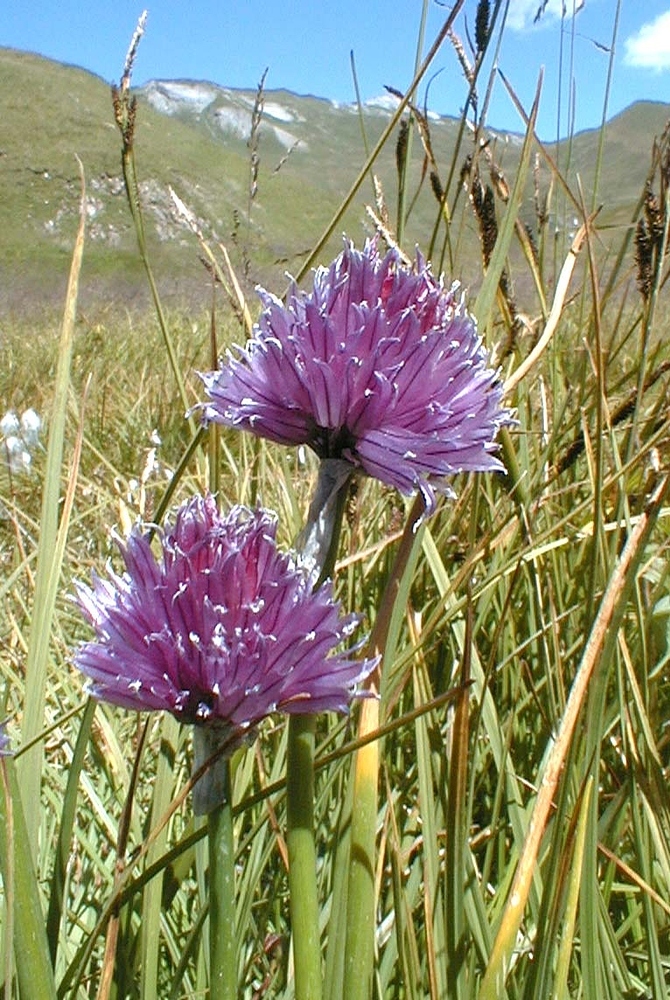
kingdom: Plantae
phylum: Tracheophyta
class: Liliopsida
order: Asparagales
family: Amaryllidaceae
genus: Allium
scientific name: Allium schoenoprasum
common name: Chives
